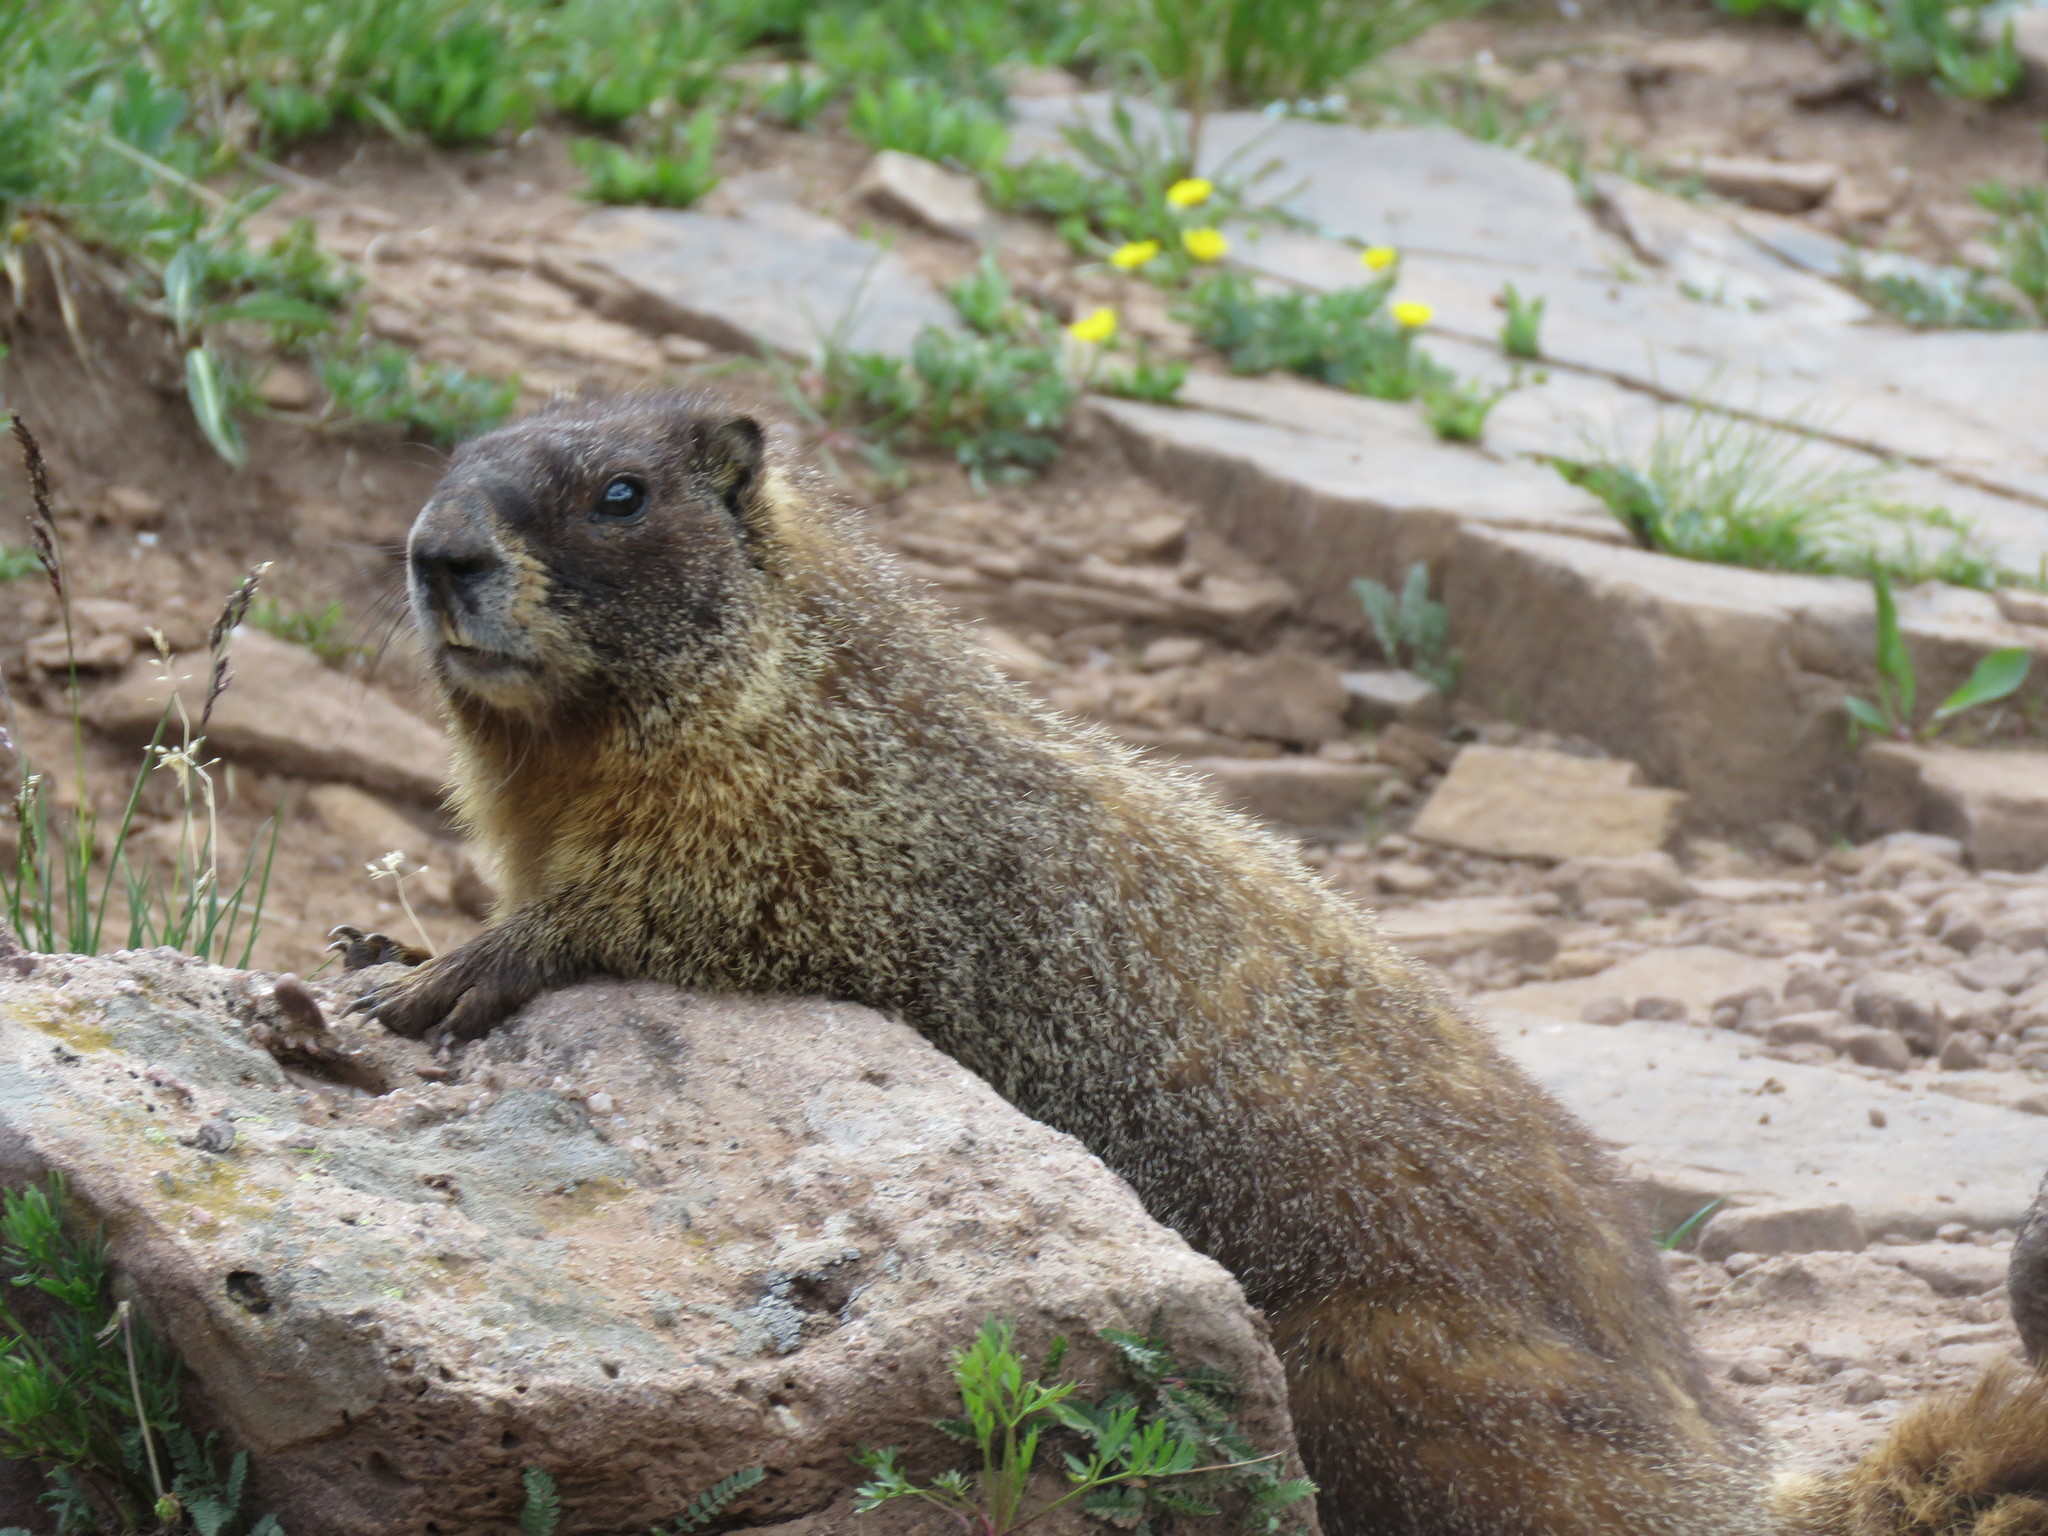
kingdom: Animalia
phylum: Chordata
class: Mammalia
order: Rodentia
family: Sciuridae
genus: Marmota
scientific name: Marmota flaviventris
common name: Yellow-bellied marmot
